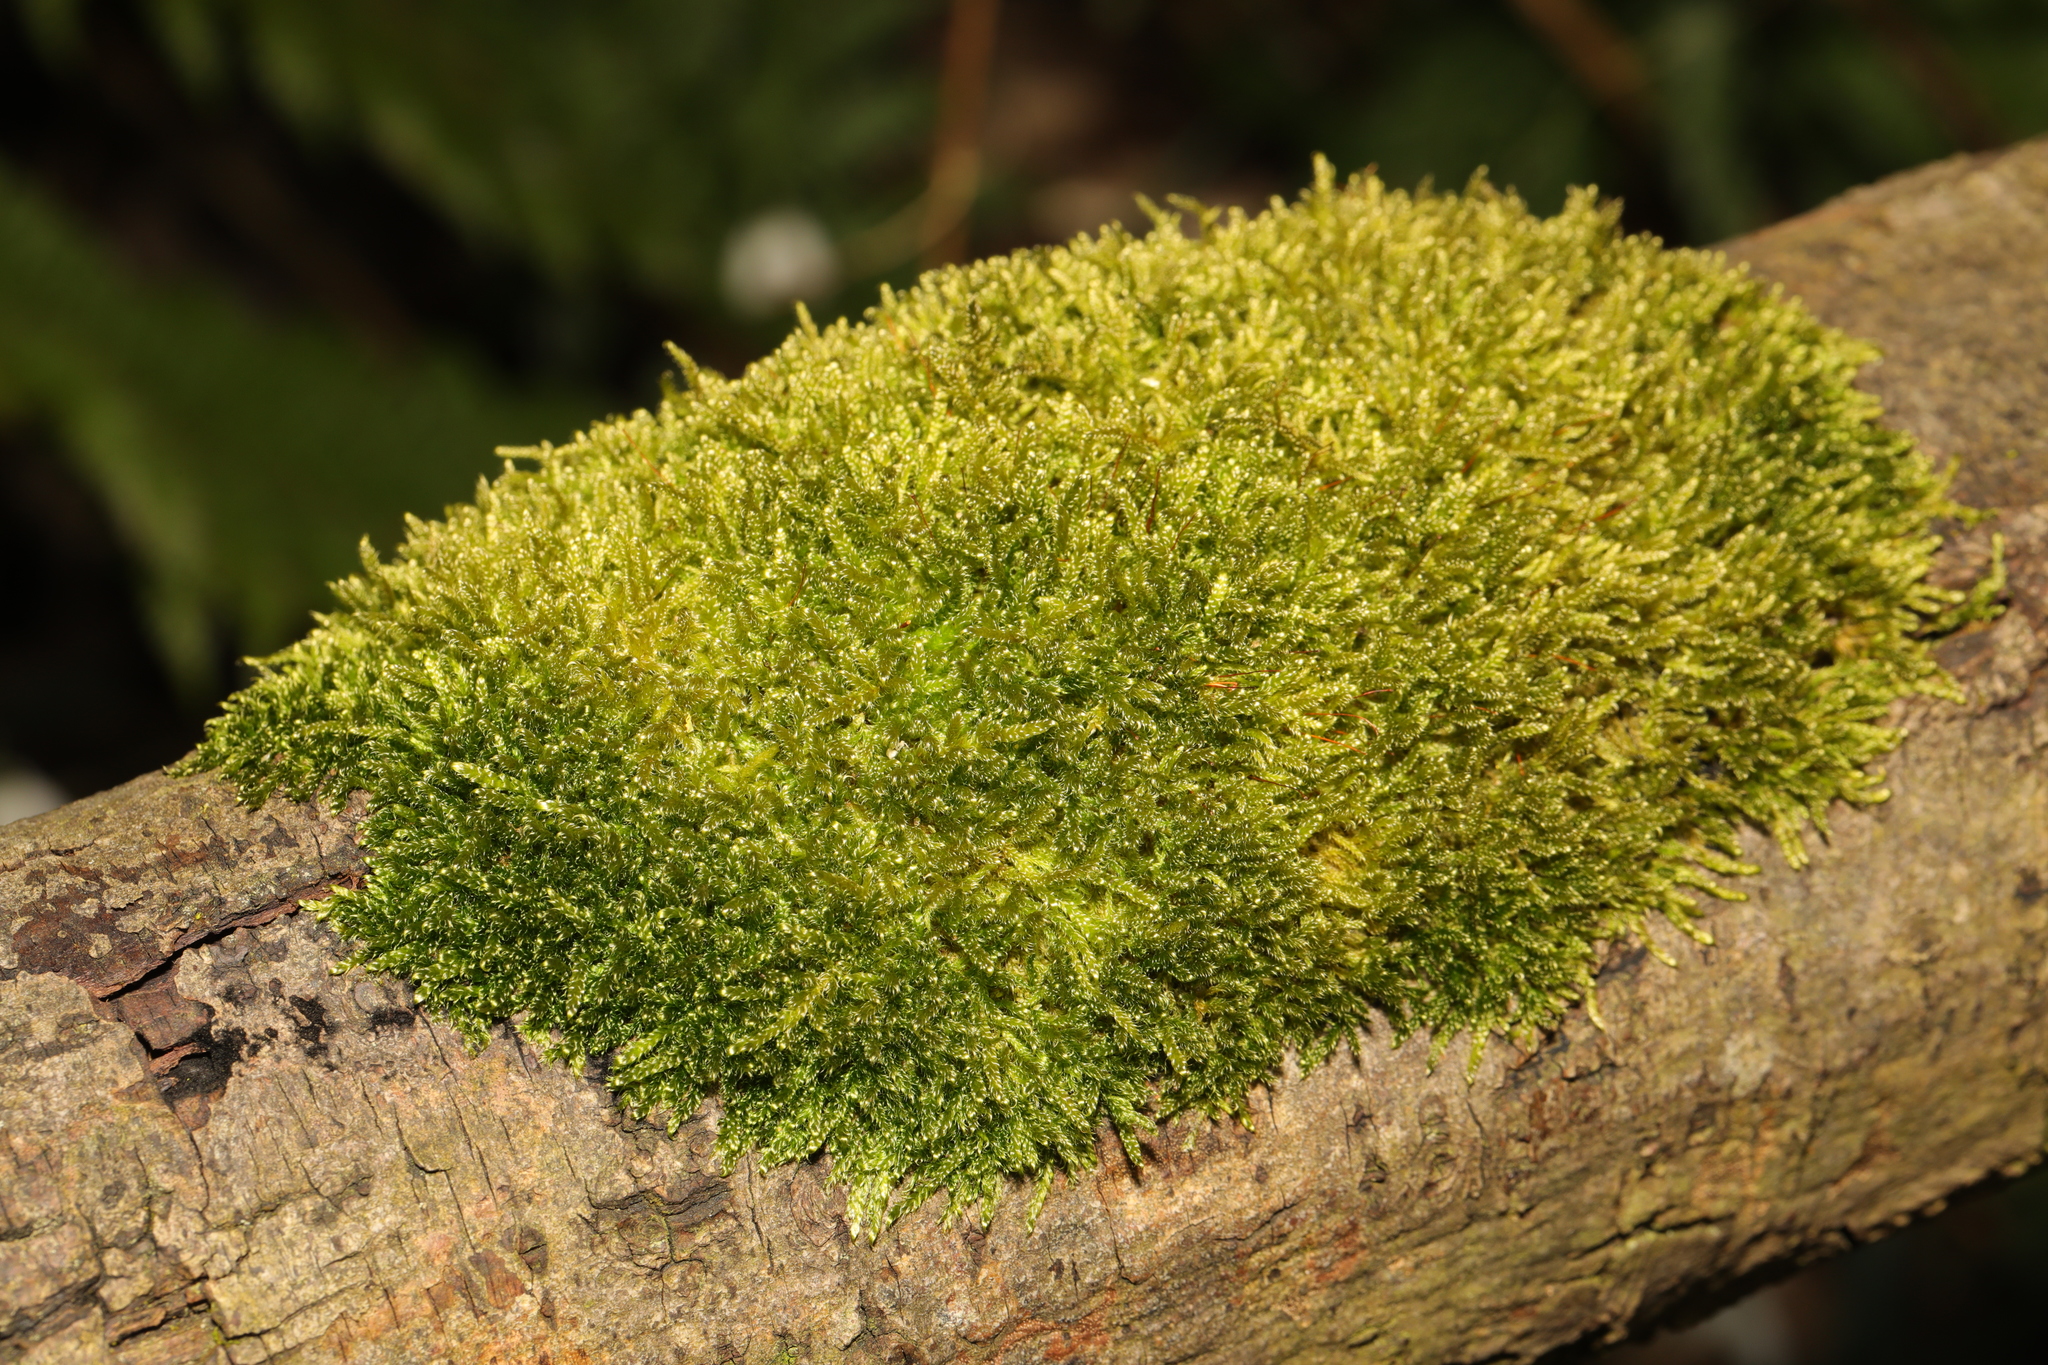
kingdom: Plantae
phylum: Bryophyta
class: Bryopsida
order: Hypnales
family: Hypnaceae
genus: Hypnum
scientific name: Hypnum cupressiforme
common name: Cypress-leaved plait-moss
